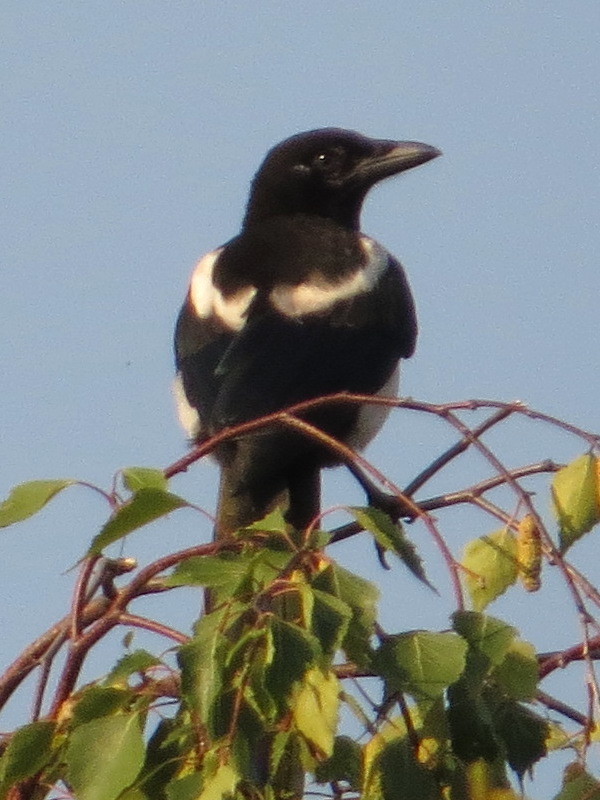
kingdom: Animalia
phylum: Chordata
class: Aves
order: Passeriformes
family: Corvidae
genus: Pica
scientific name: Pica pica
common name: Eurasian magpie
